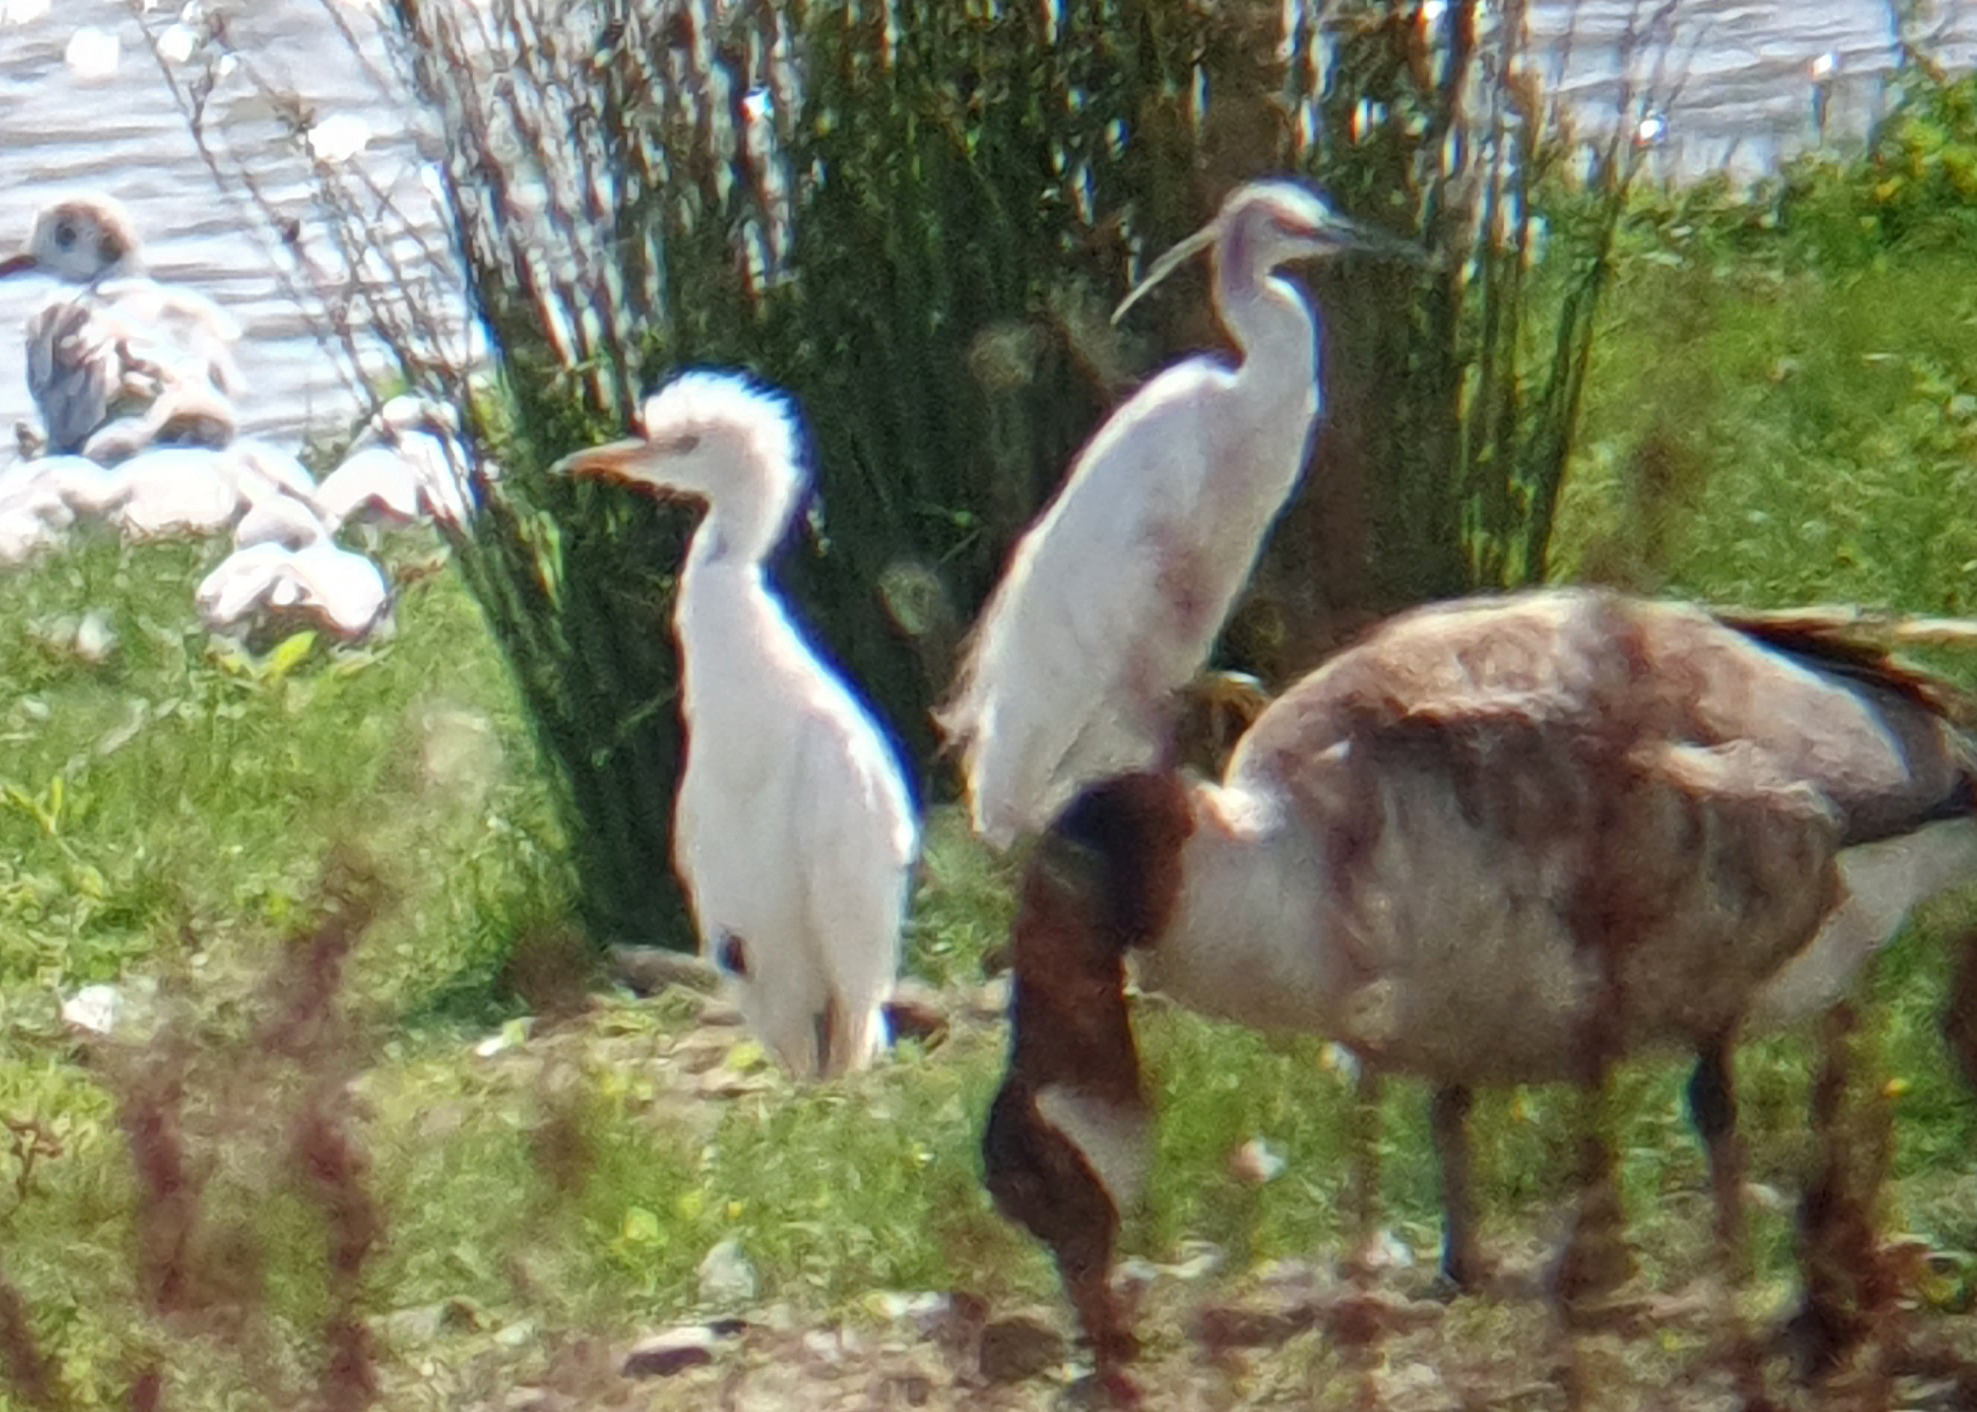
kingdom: Animalia
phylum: Chordata
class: Aves
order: Pelecaniformes
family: Ardeidae
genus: Bubulcus
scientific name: Bubulcus ibis
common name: Cattle egret
